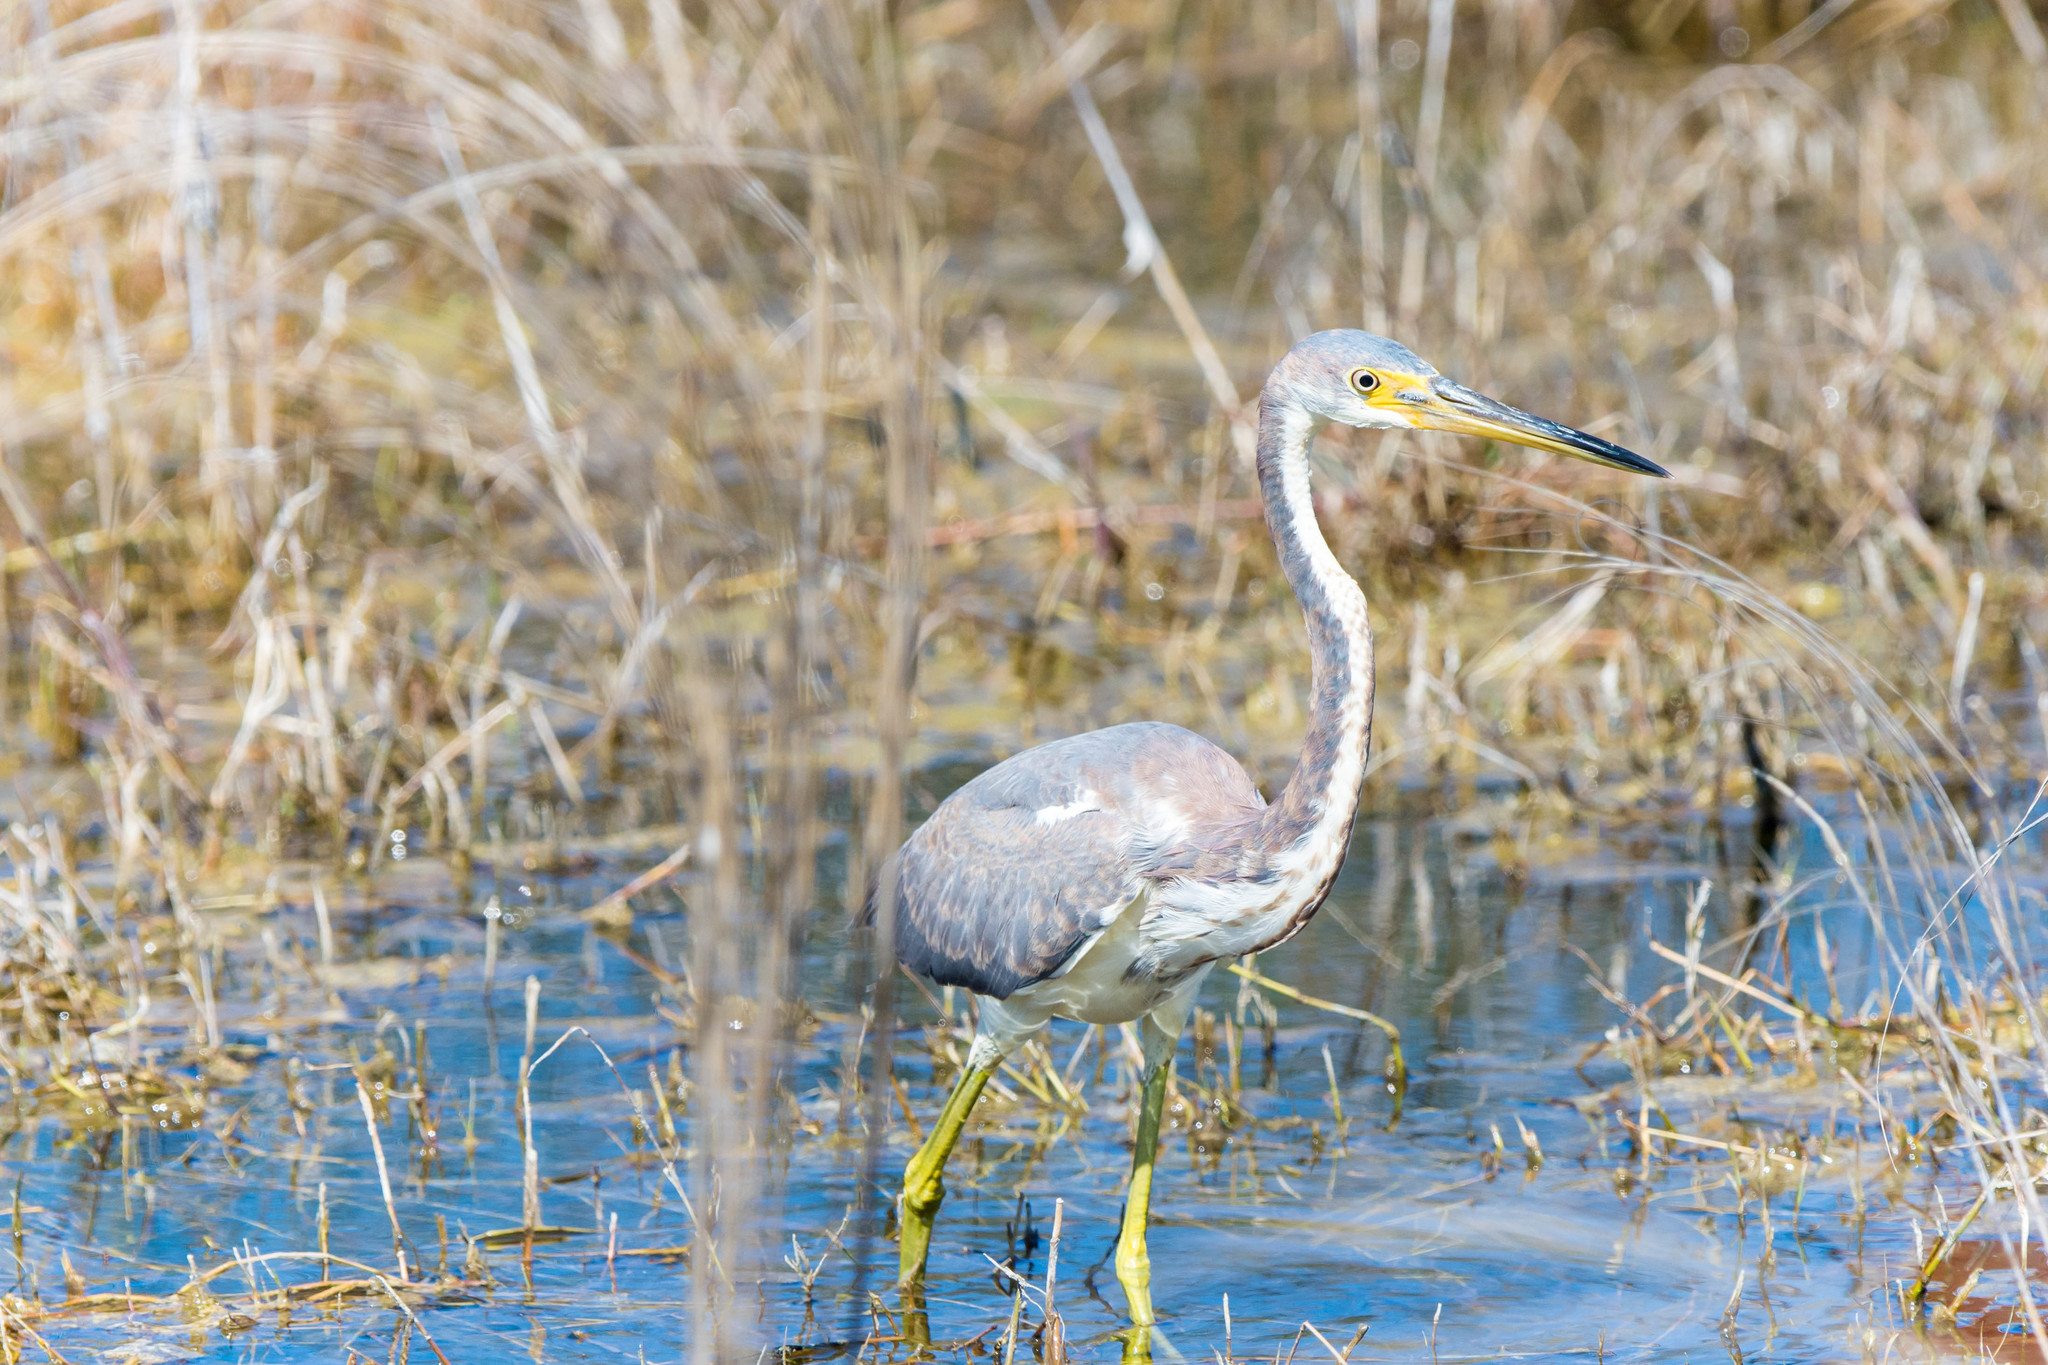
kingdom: Animalia
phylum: Chordata
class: Aves
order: Pelecaniformes
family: Ardeidae
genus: Egretta
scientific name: Egretta tricolor
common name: Tricolored heron
